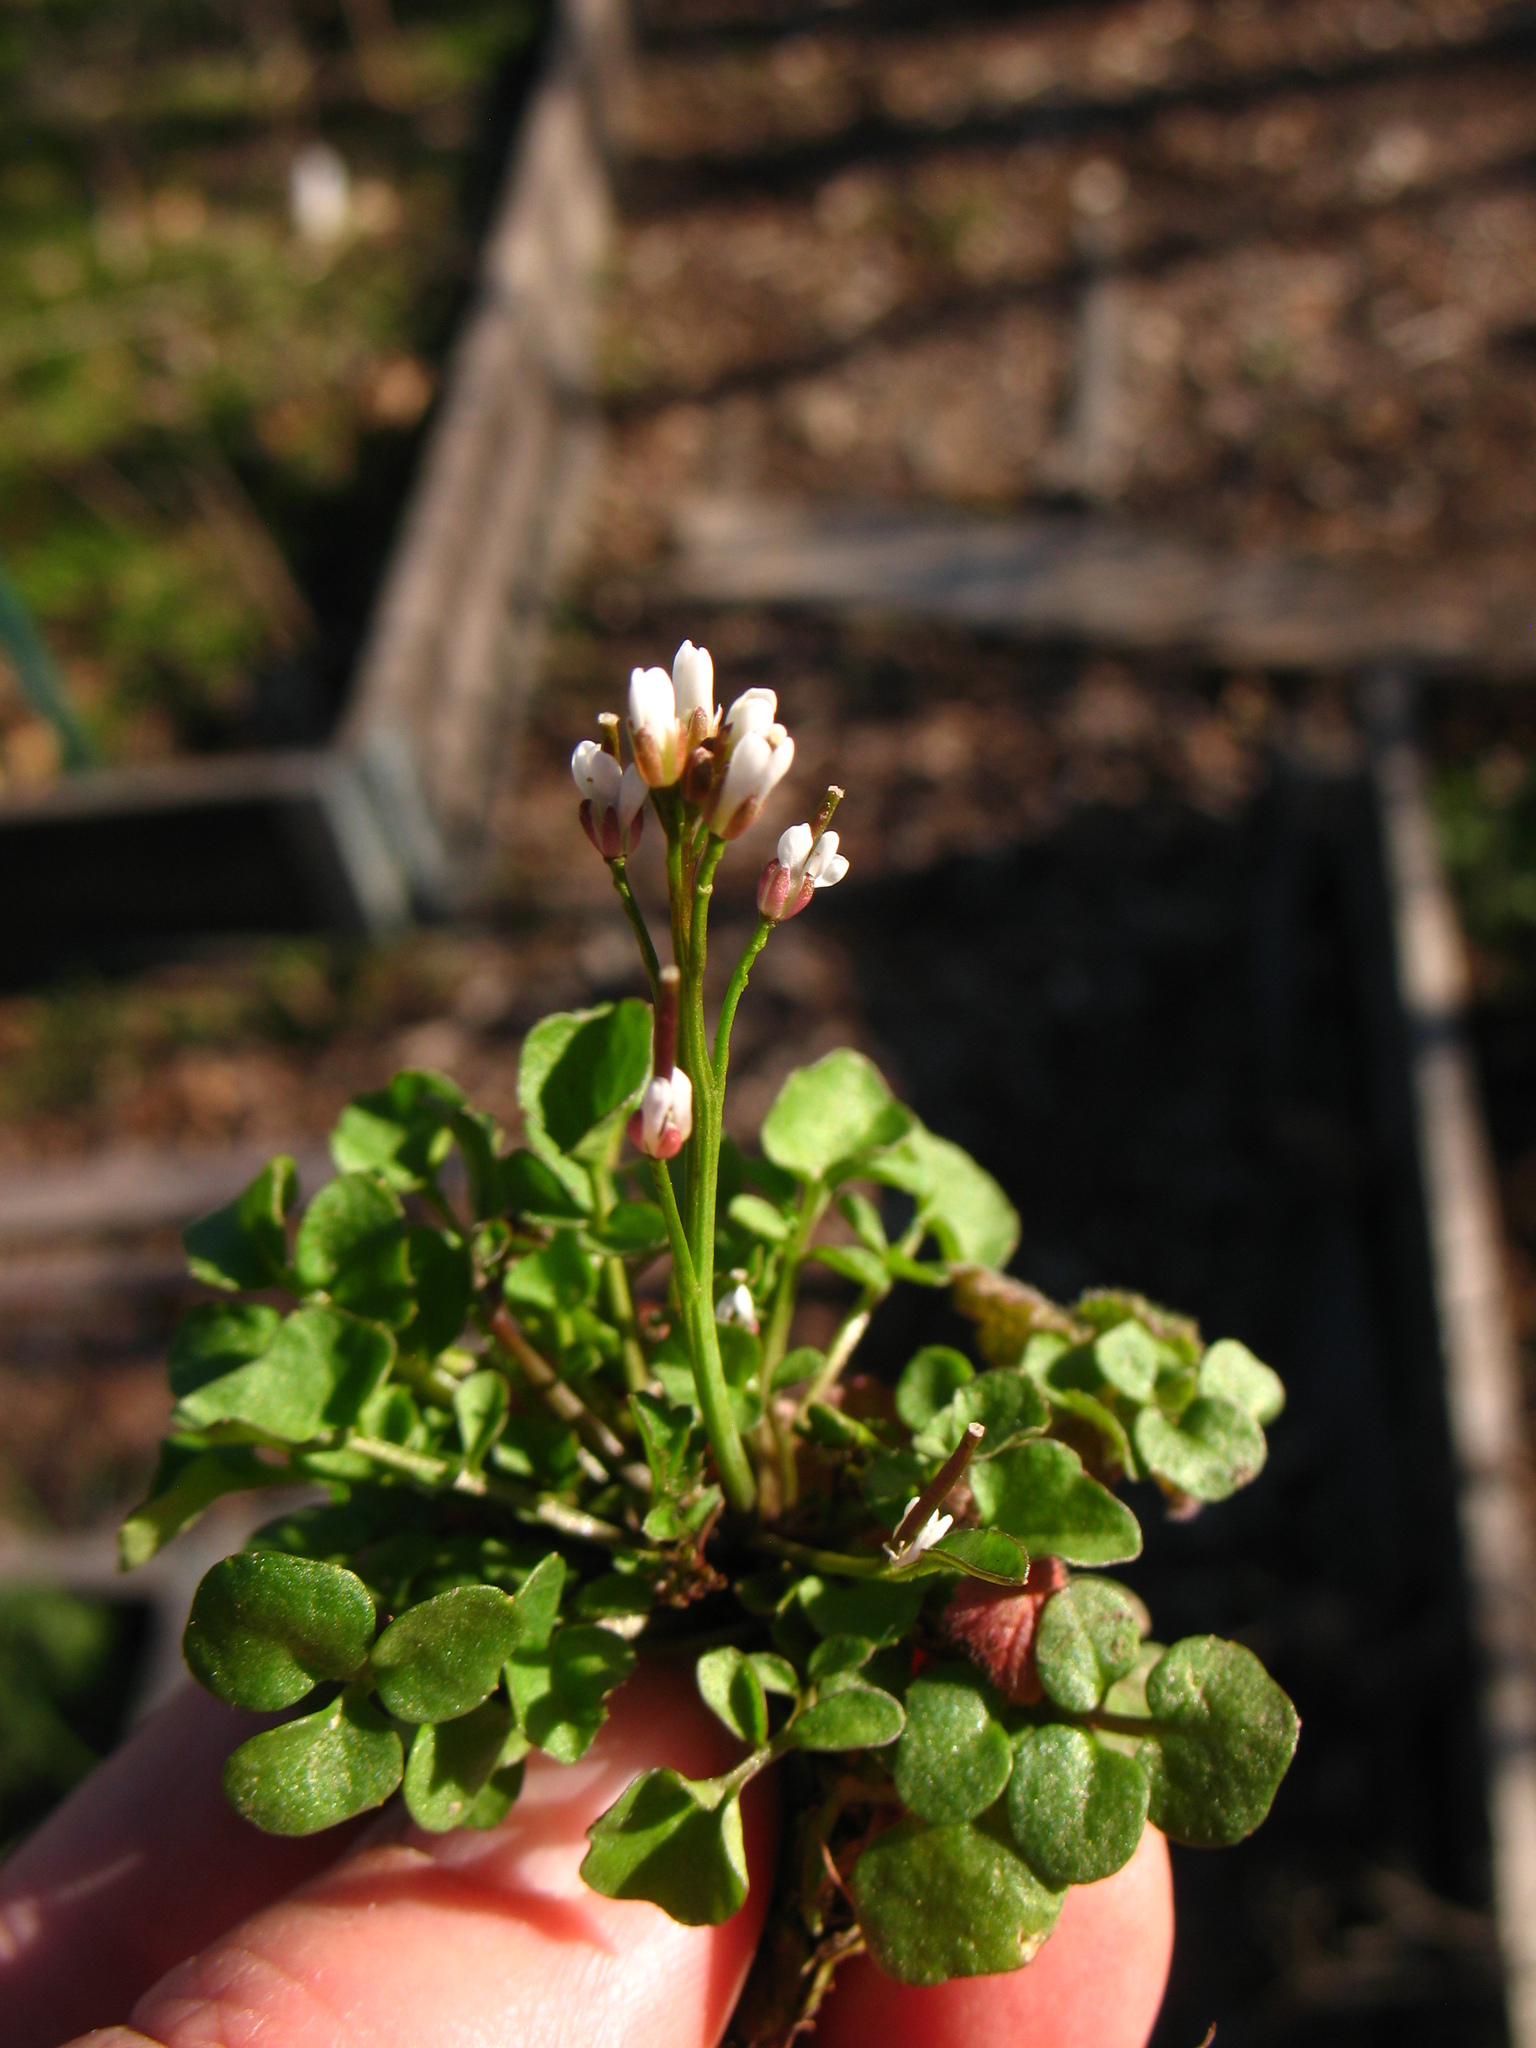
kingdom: Plantae
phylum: Tracheophyta
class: Magnoliopsida
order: Brassicales
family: Brassicaceae
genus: Cardamine
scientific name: Cardamine hirsuta
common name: Hairy bittercress
